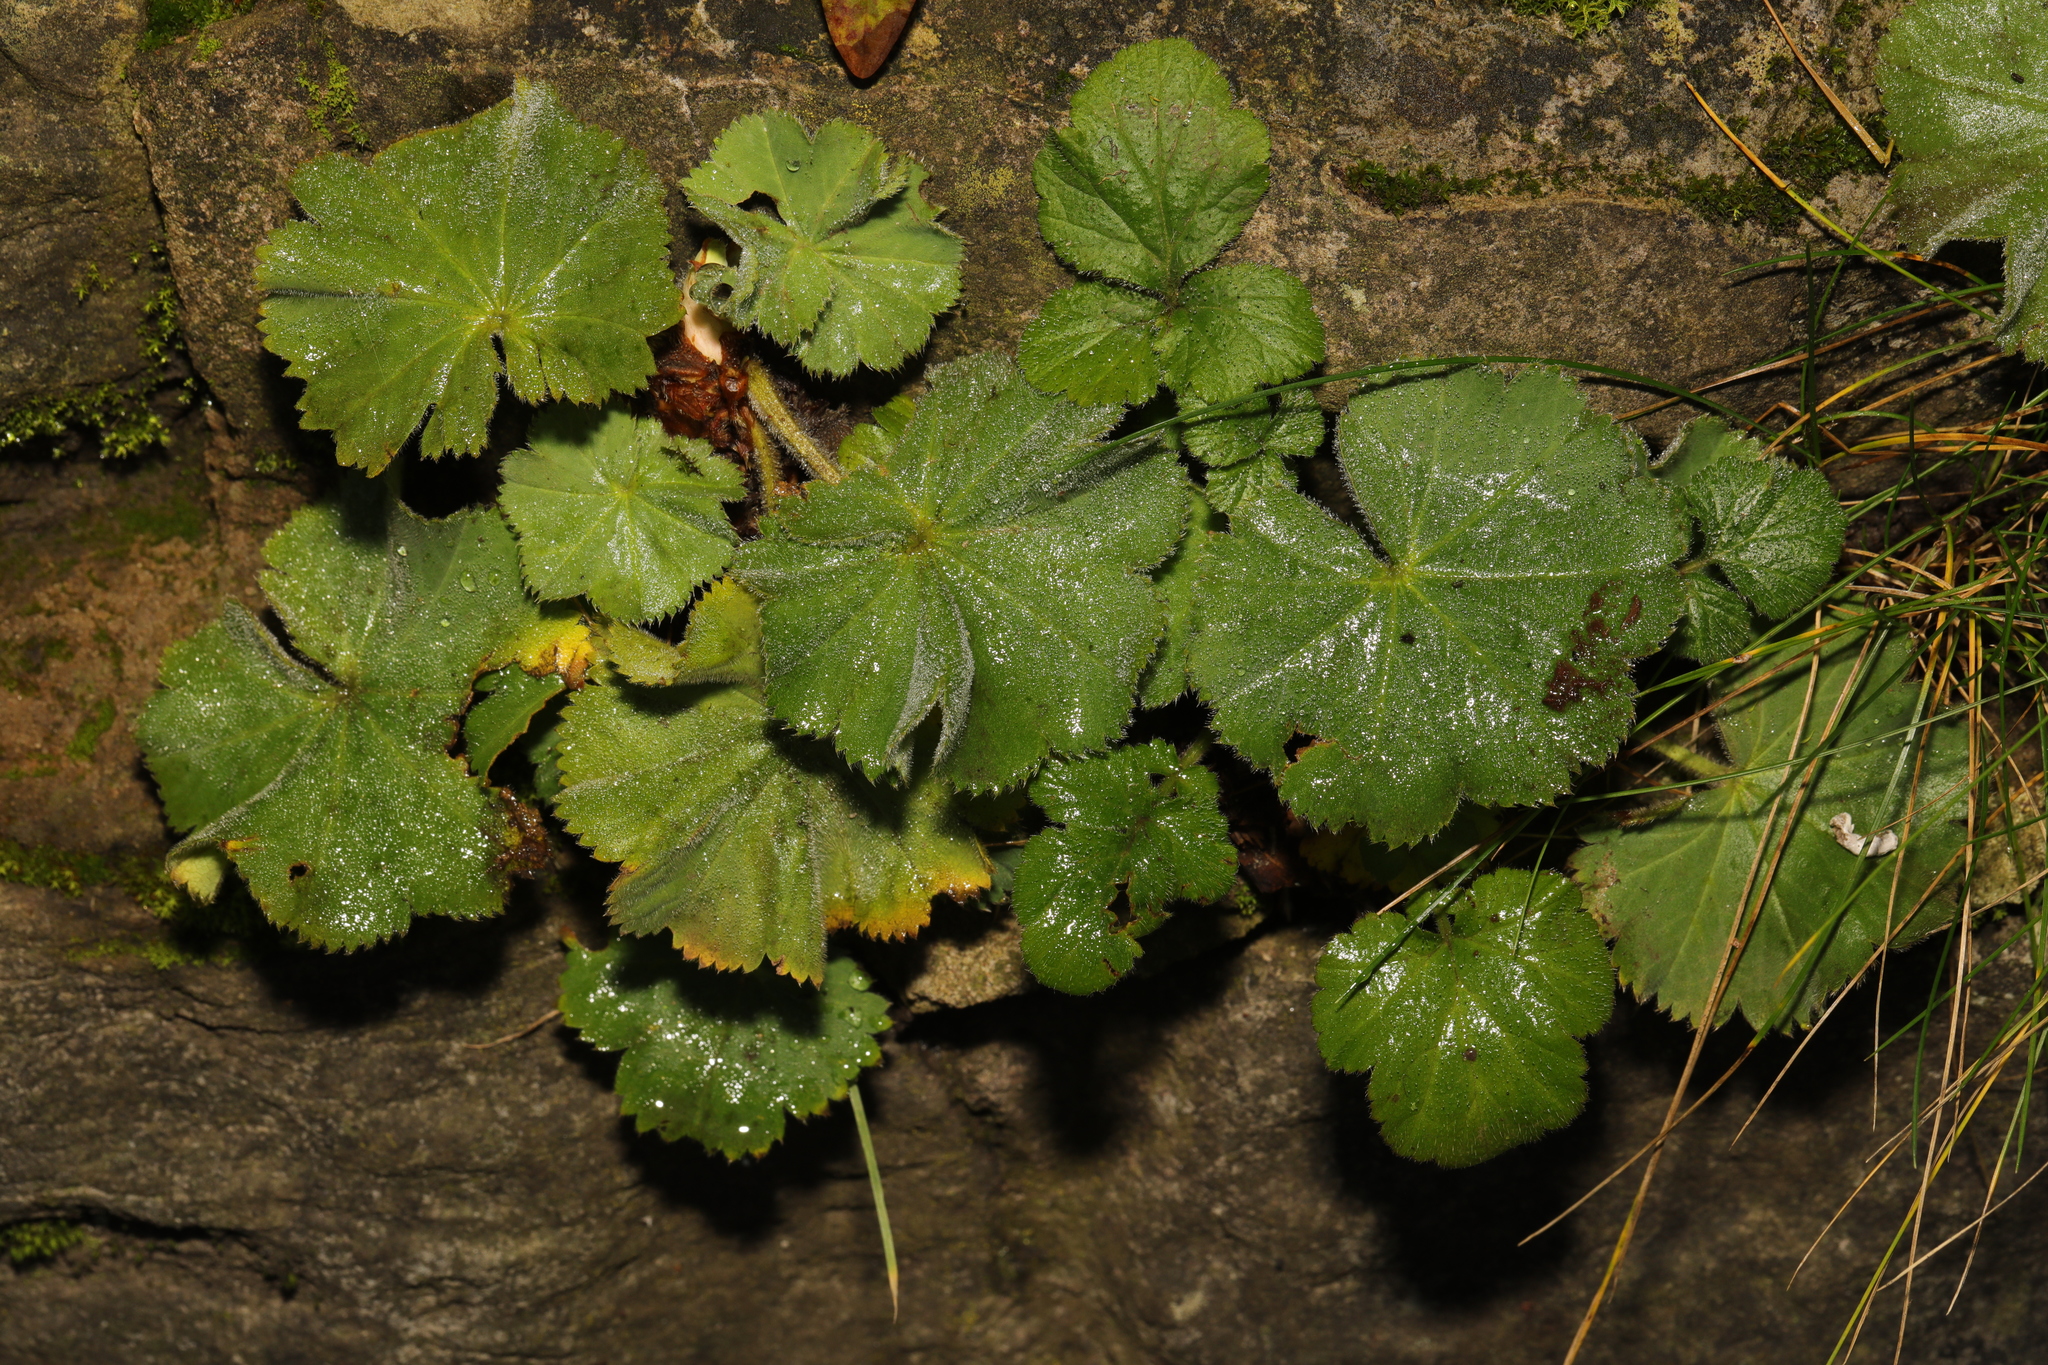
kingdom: Plantae
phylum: Tracheophyta
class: Magnoliopsida
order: Rosales
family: Rosaceae
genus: Alchemilla
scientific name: Alchemilla mollis
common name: Lady's-mantle
